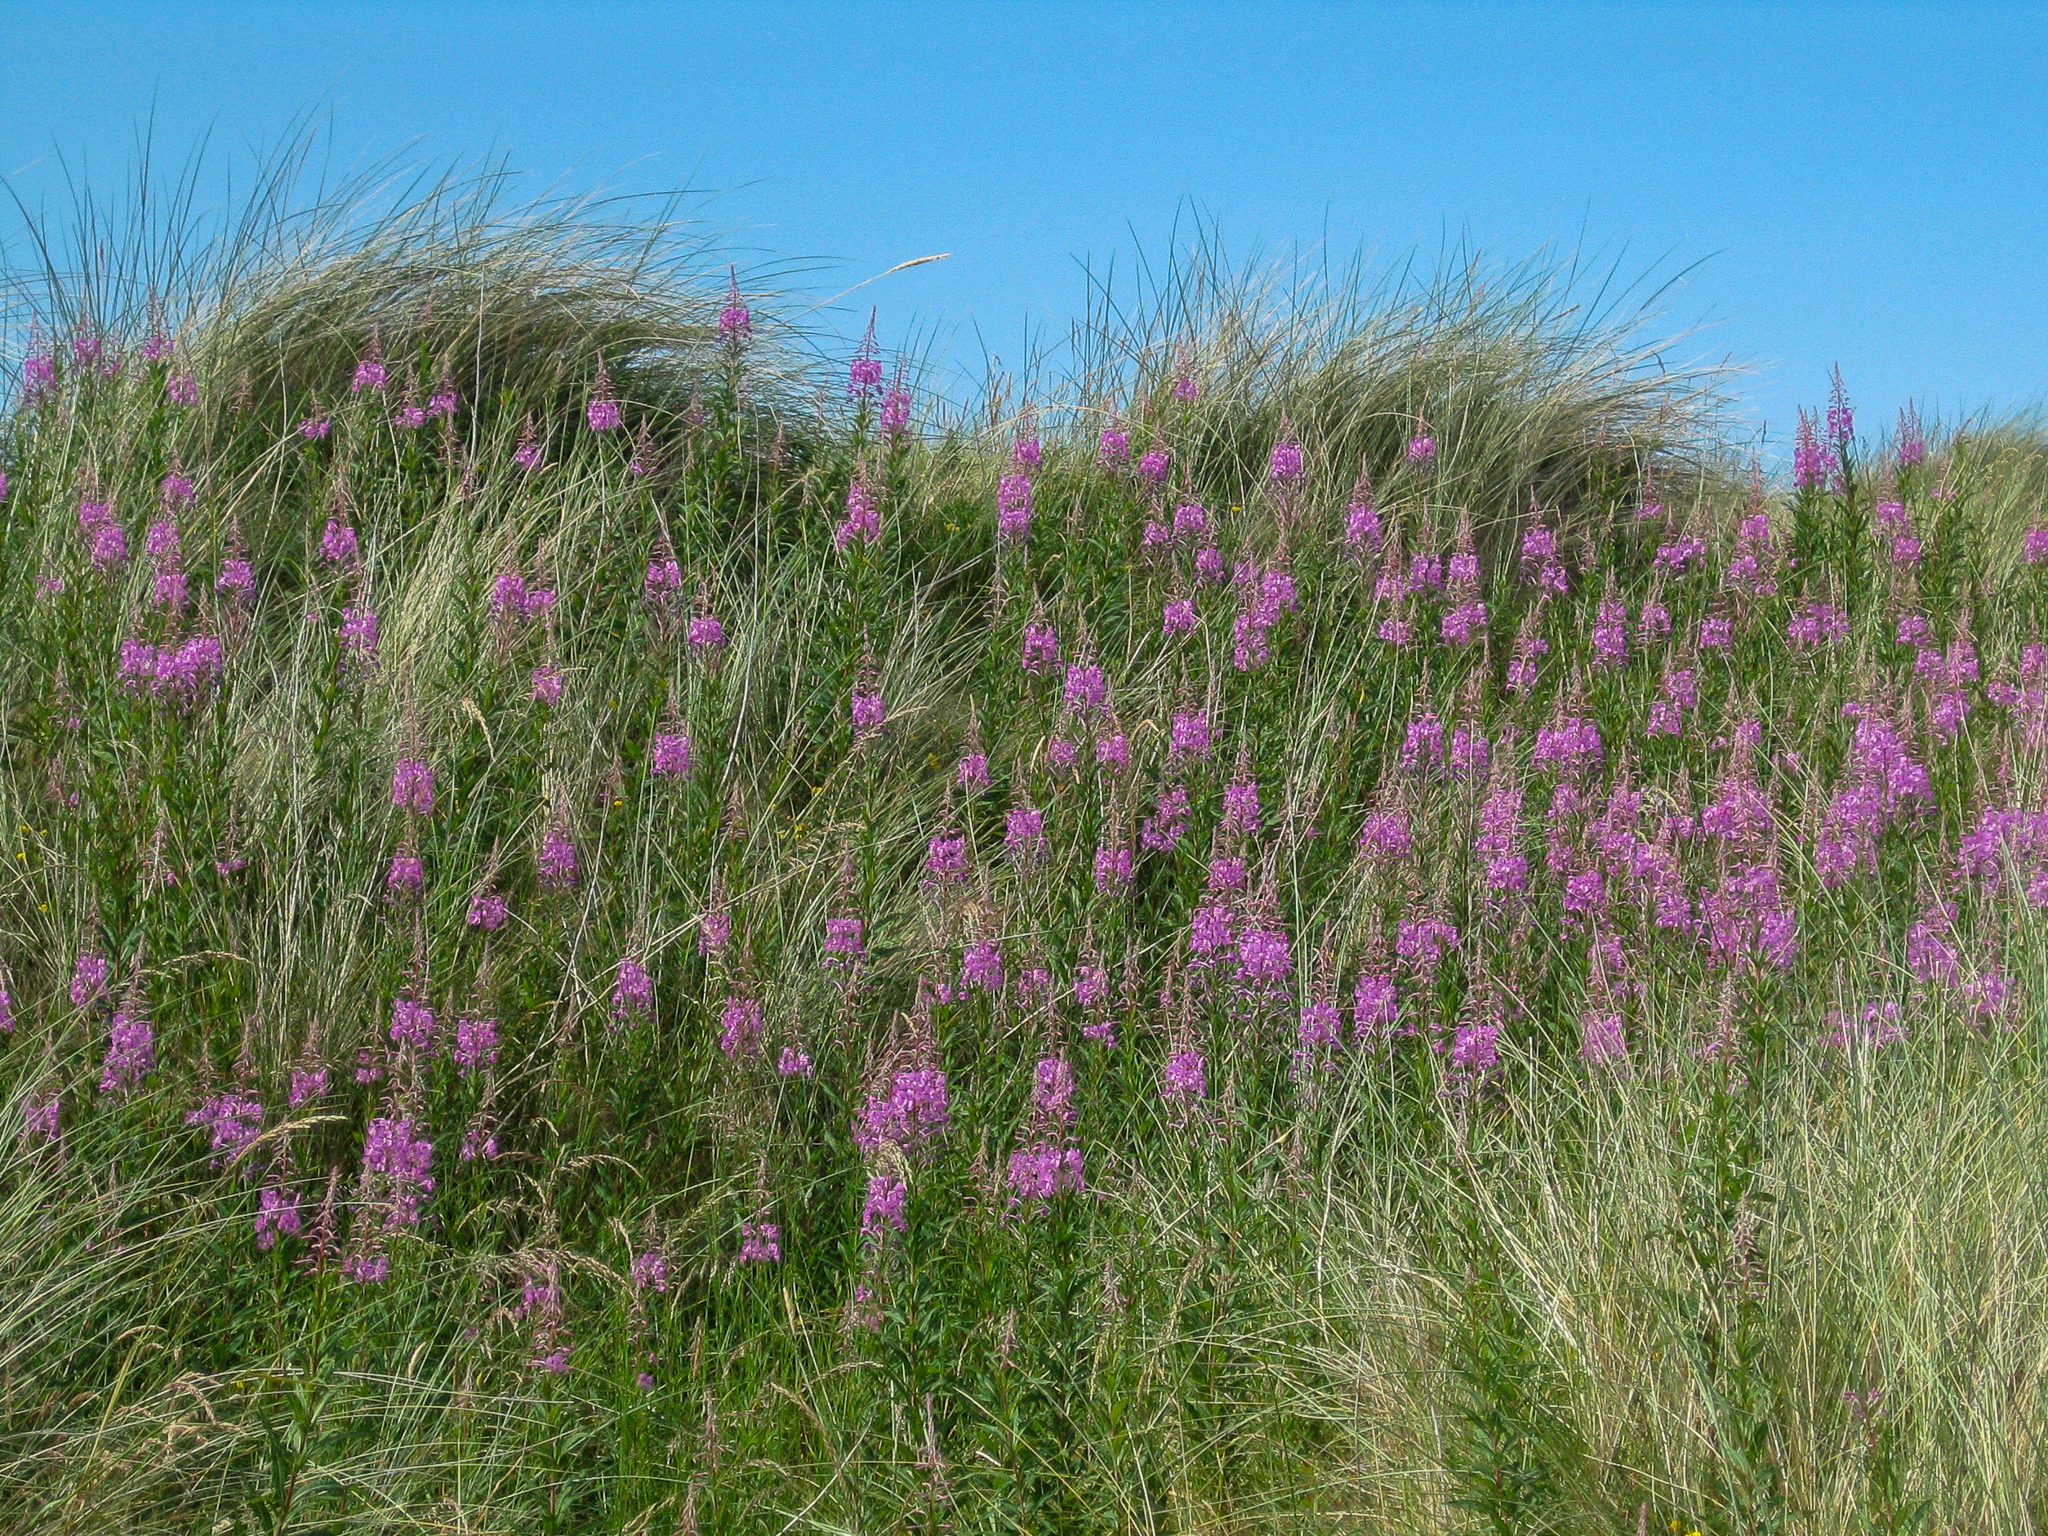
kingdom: Plantae
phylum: Tracheophyta
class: Magnoliopsida
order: Myrtales
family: Onagraceae
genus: Chamaenerion
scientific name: Chamaenerion angustifolium
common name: Fireweed
